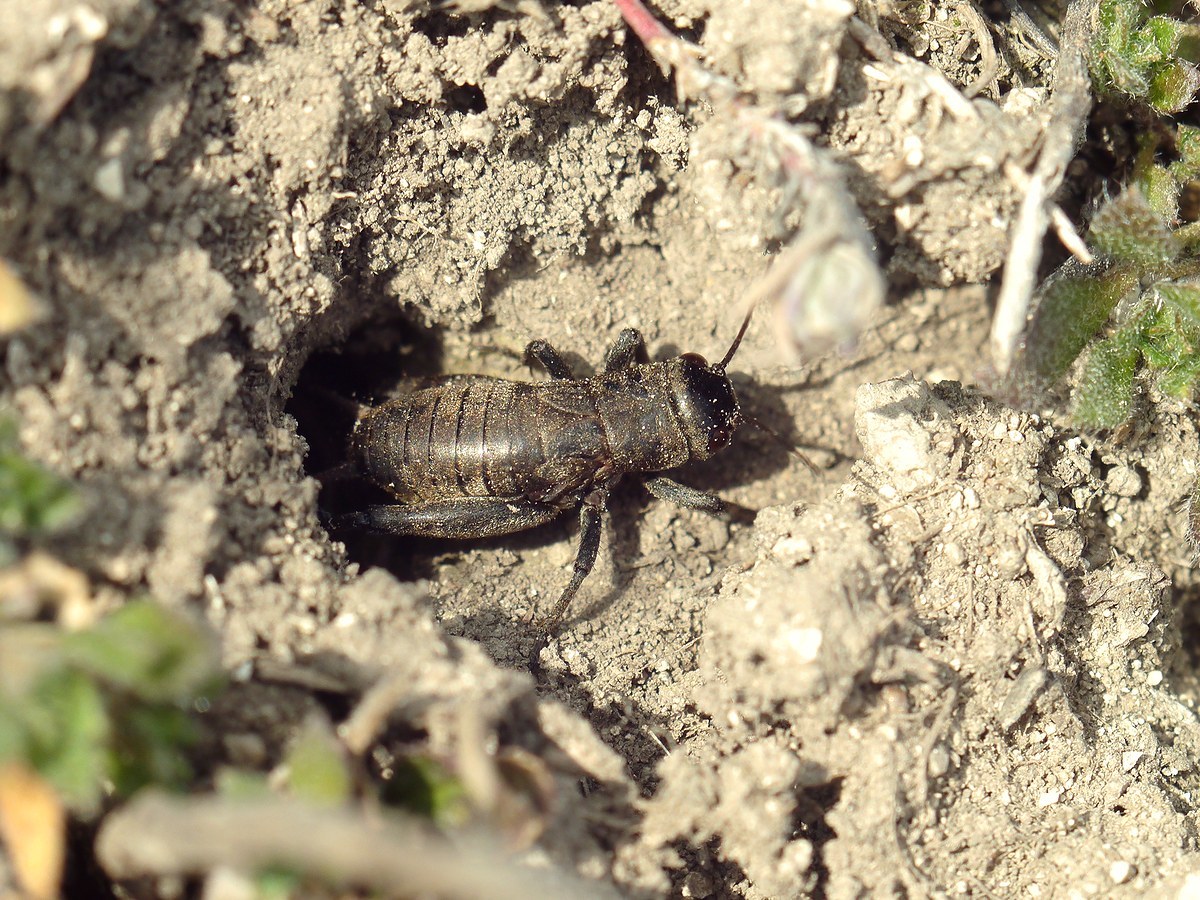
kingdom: Animalia
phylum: Arthropoda
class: Insecta
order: Orthoptera
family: Gryllidae
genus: Melanogryllus
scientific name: Melanogryllus desertus
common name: Desert cricket
